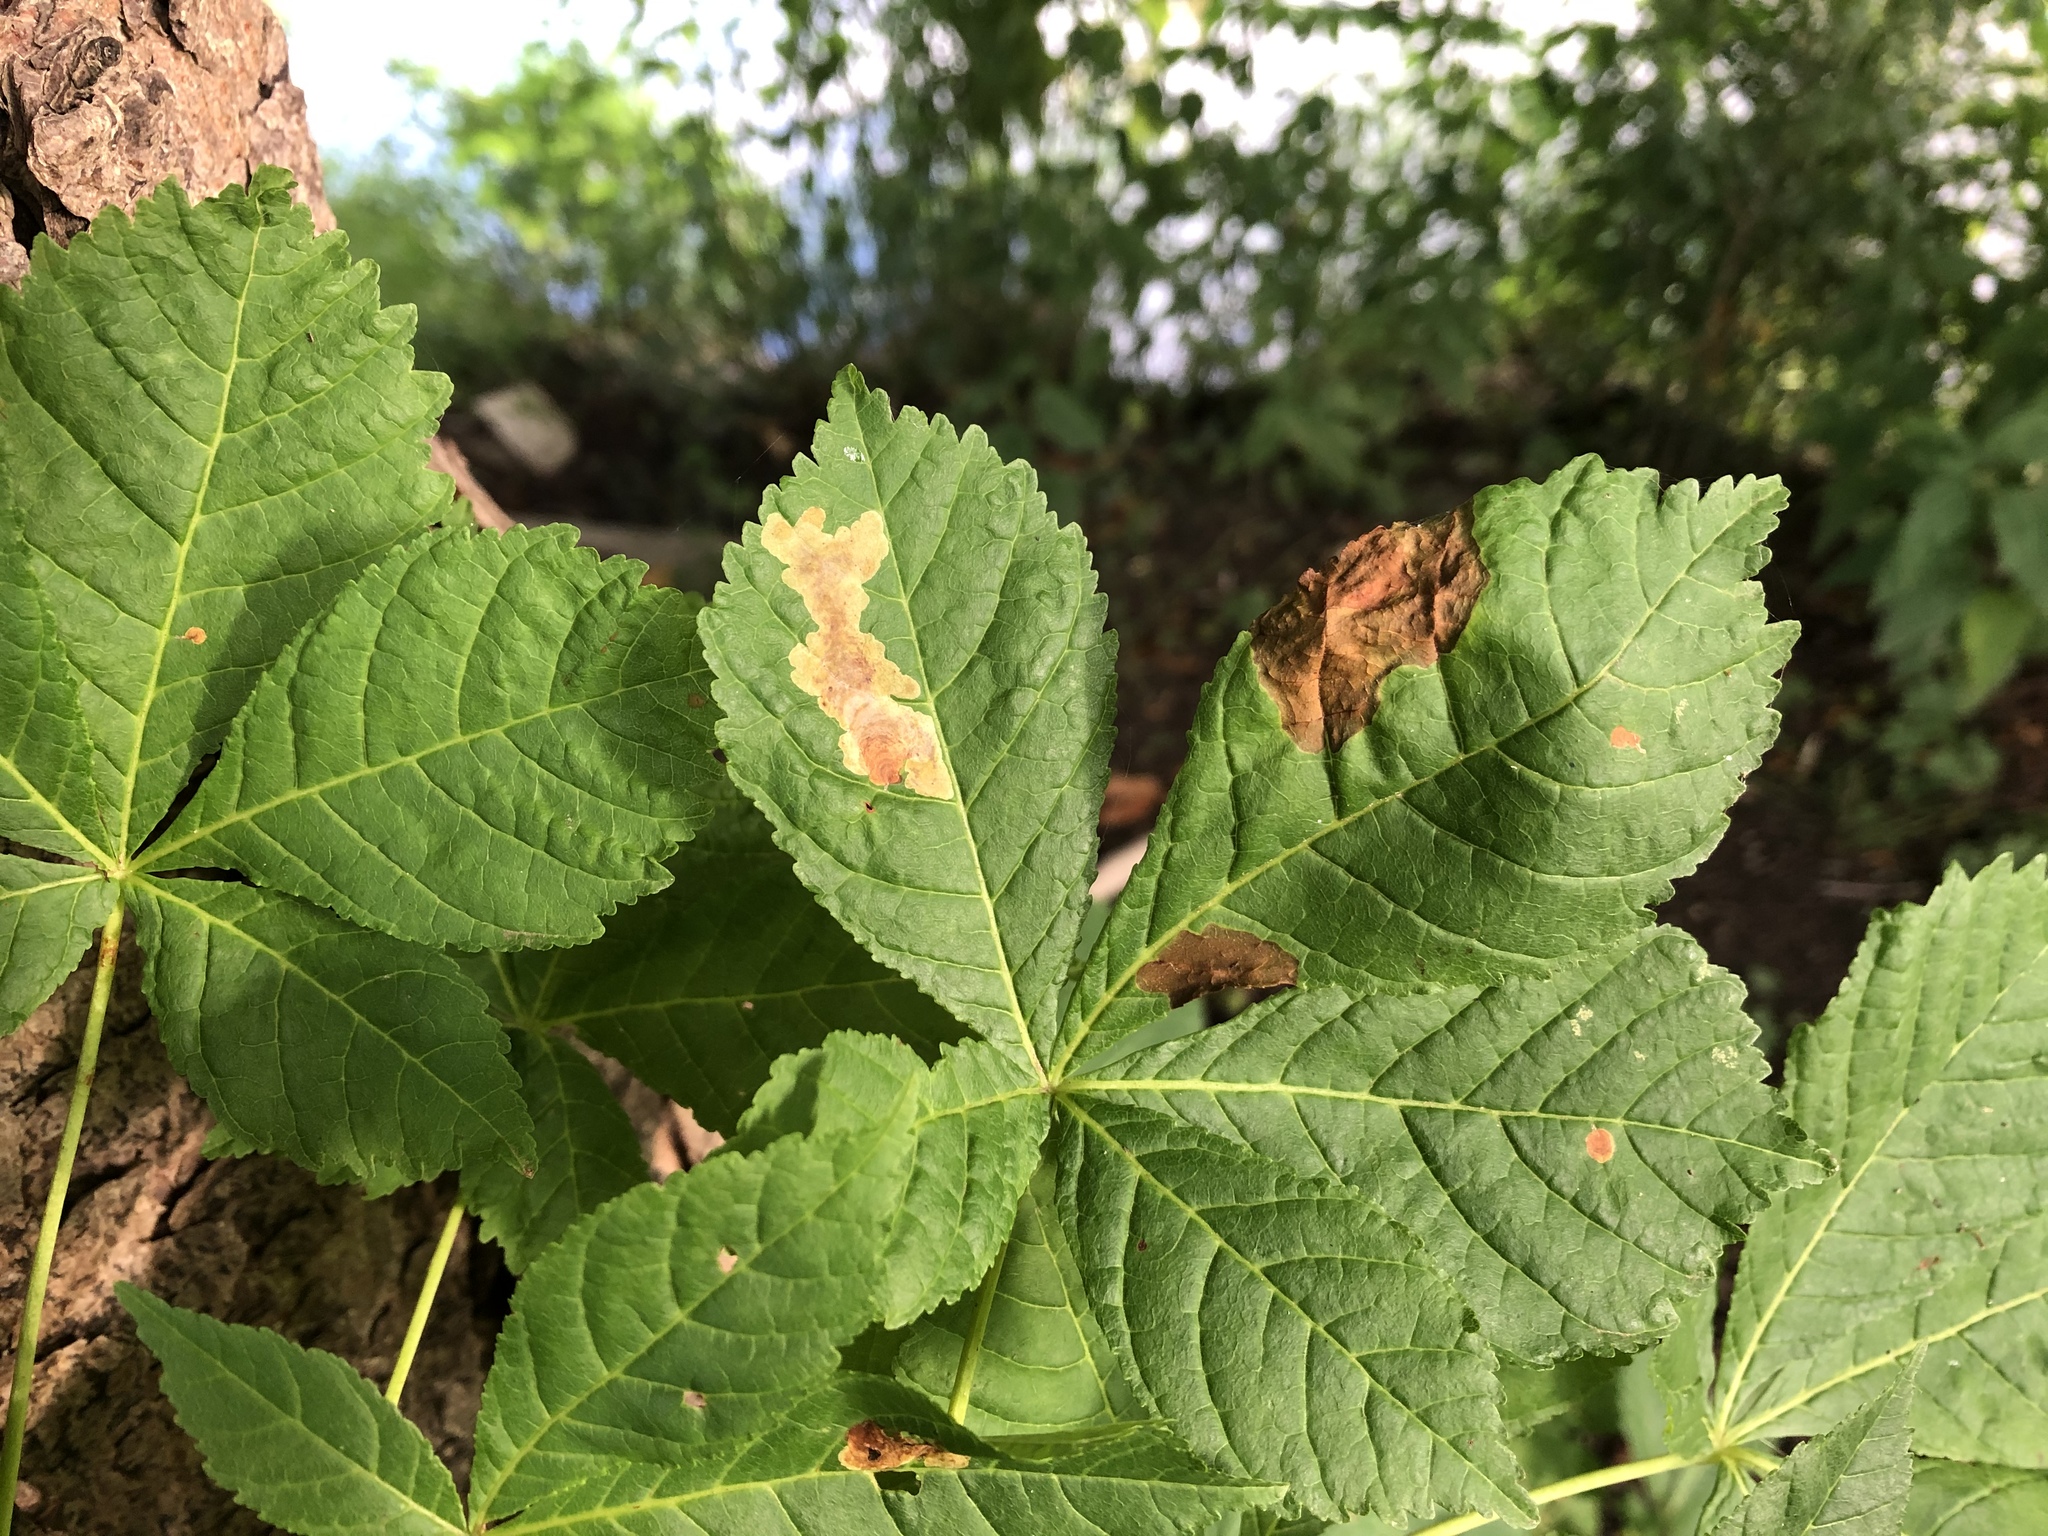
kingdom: Animalia
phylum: Arthropoda
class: Insecta
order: Lepidoptera
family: Gracillariidae
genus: Cameraria
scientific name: Cameraria ohridella
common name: Horse-chestnut leaf-miner
